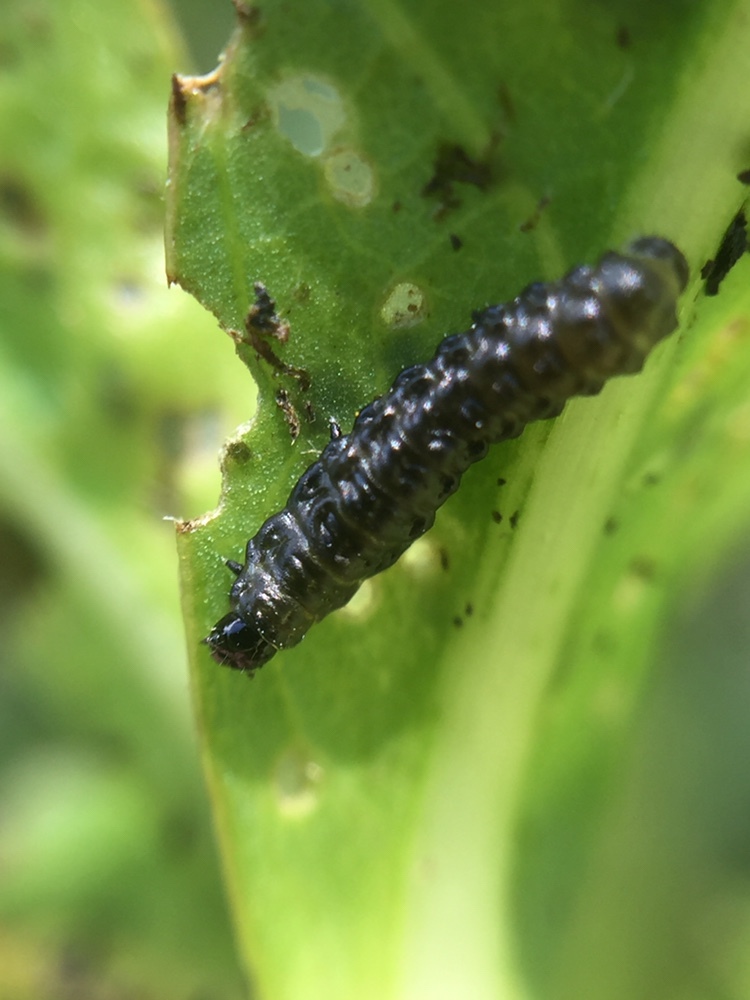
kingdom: Animalia
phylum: Arthropoda
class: Insecta
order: Coleoptera
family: Chrysomelidae
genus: Agasicles
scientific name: Agasicles hygrophila
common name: Alligatorweed flea beetle
